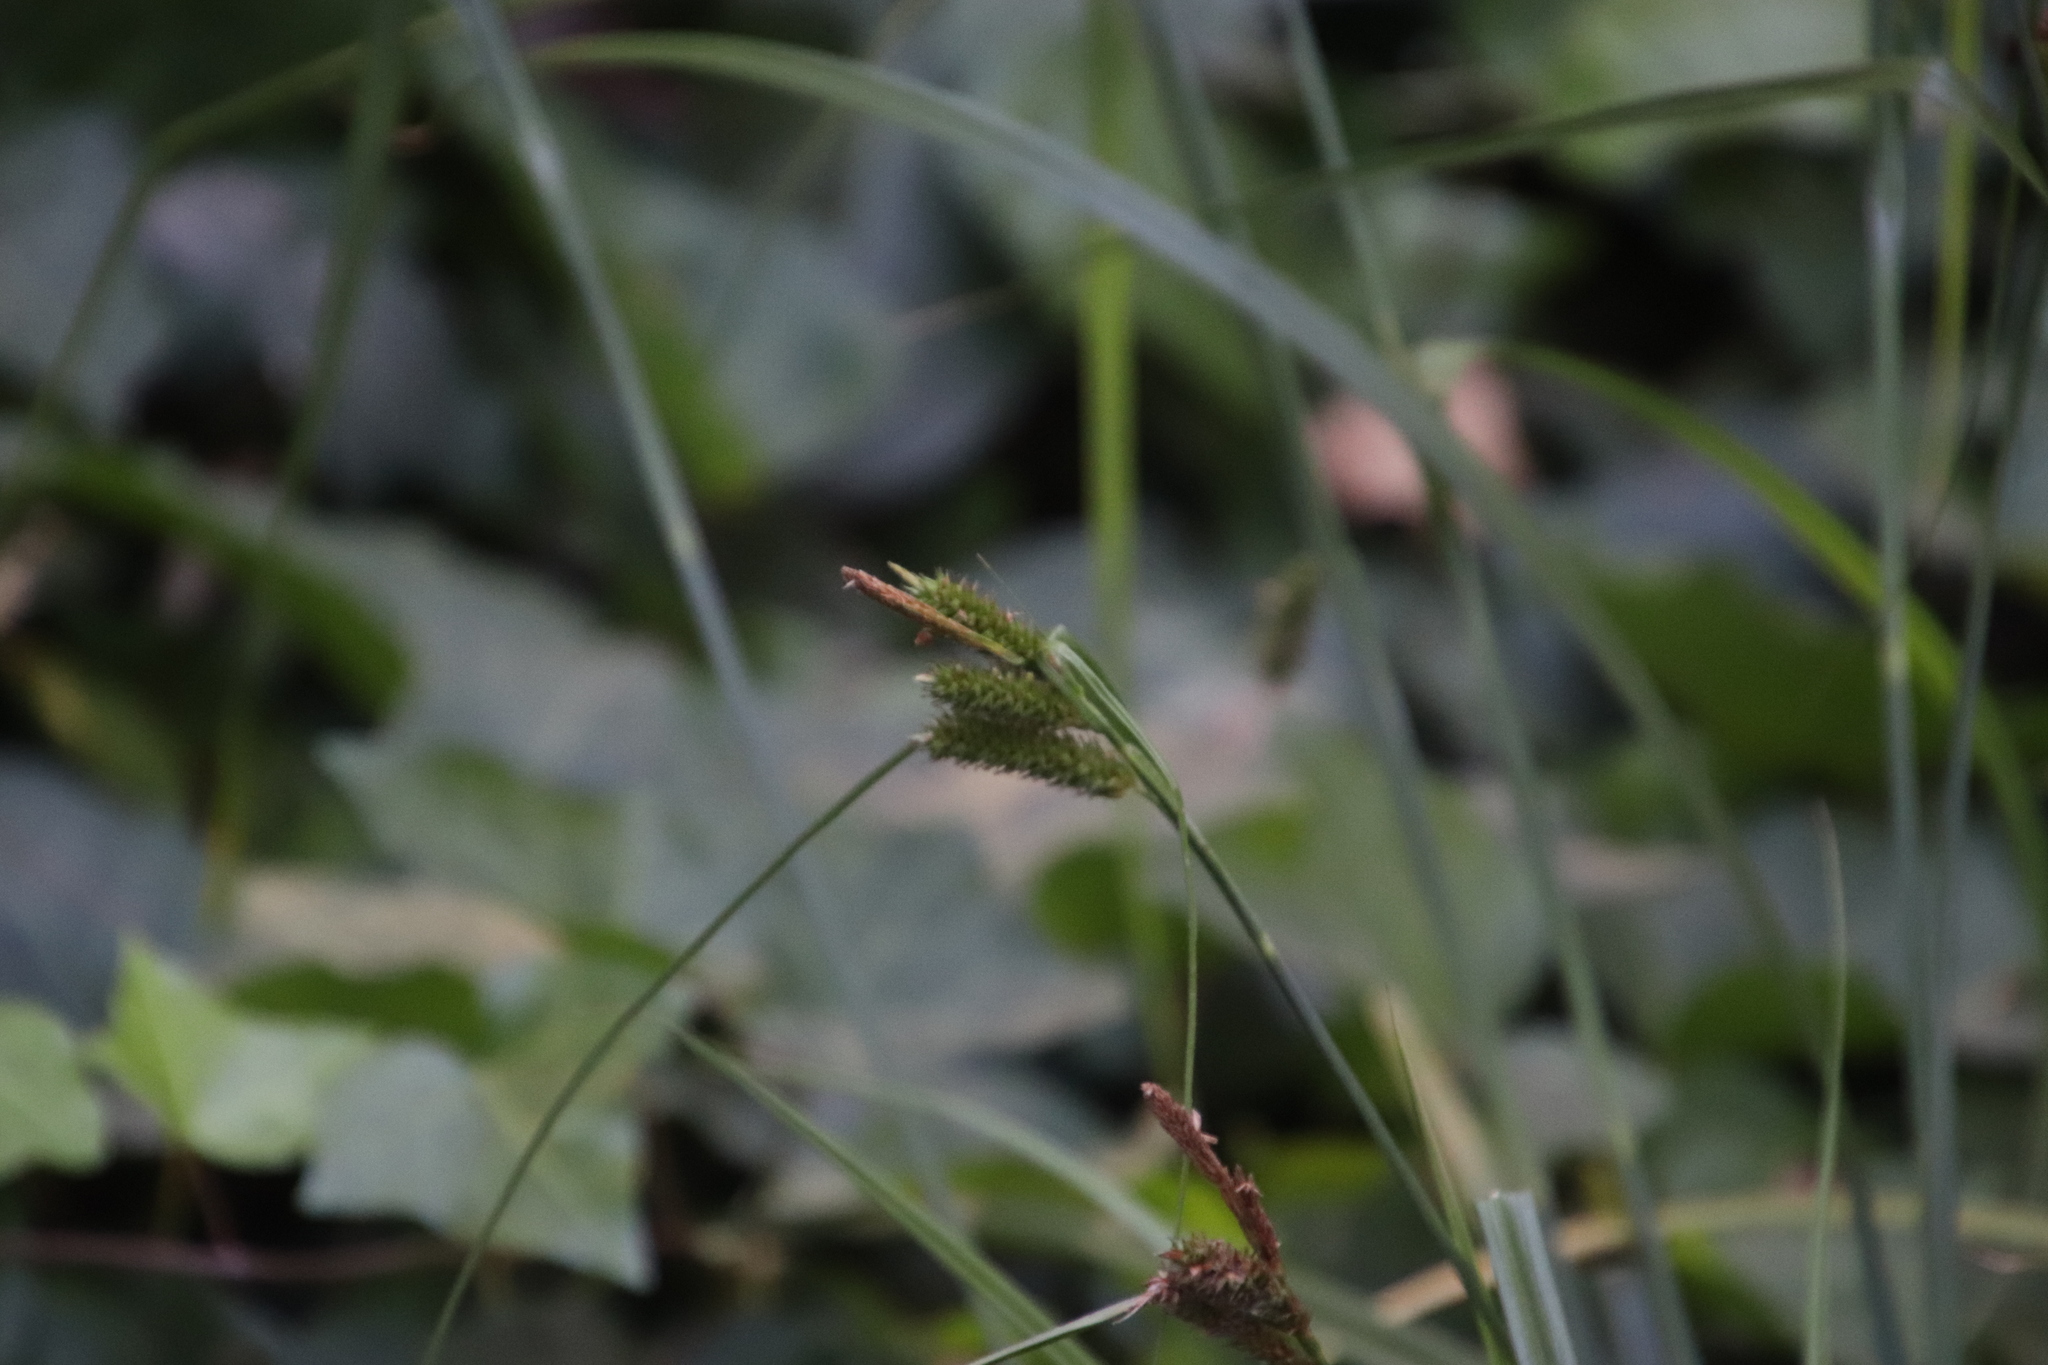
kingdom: Plantae
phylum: Tracheophyta
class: Liliopsida
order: Poales
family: Cyperaceae
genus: Carex
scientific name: Carex aethiopica
